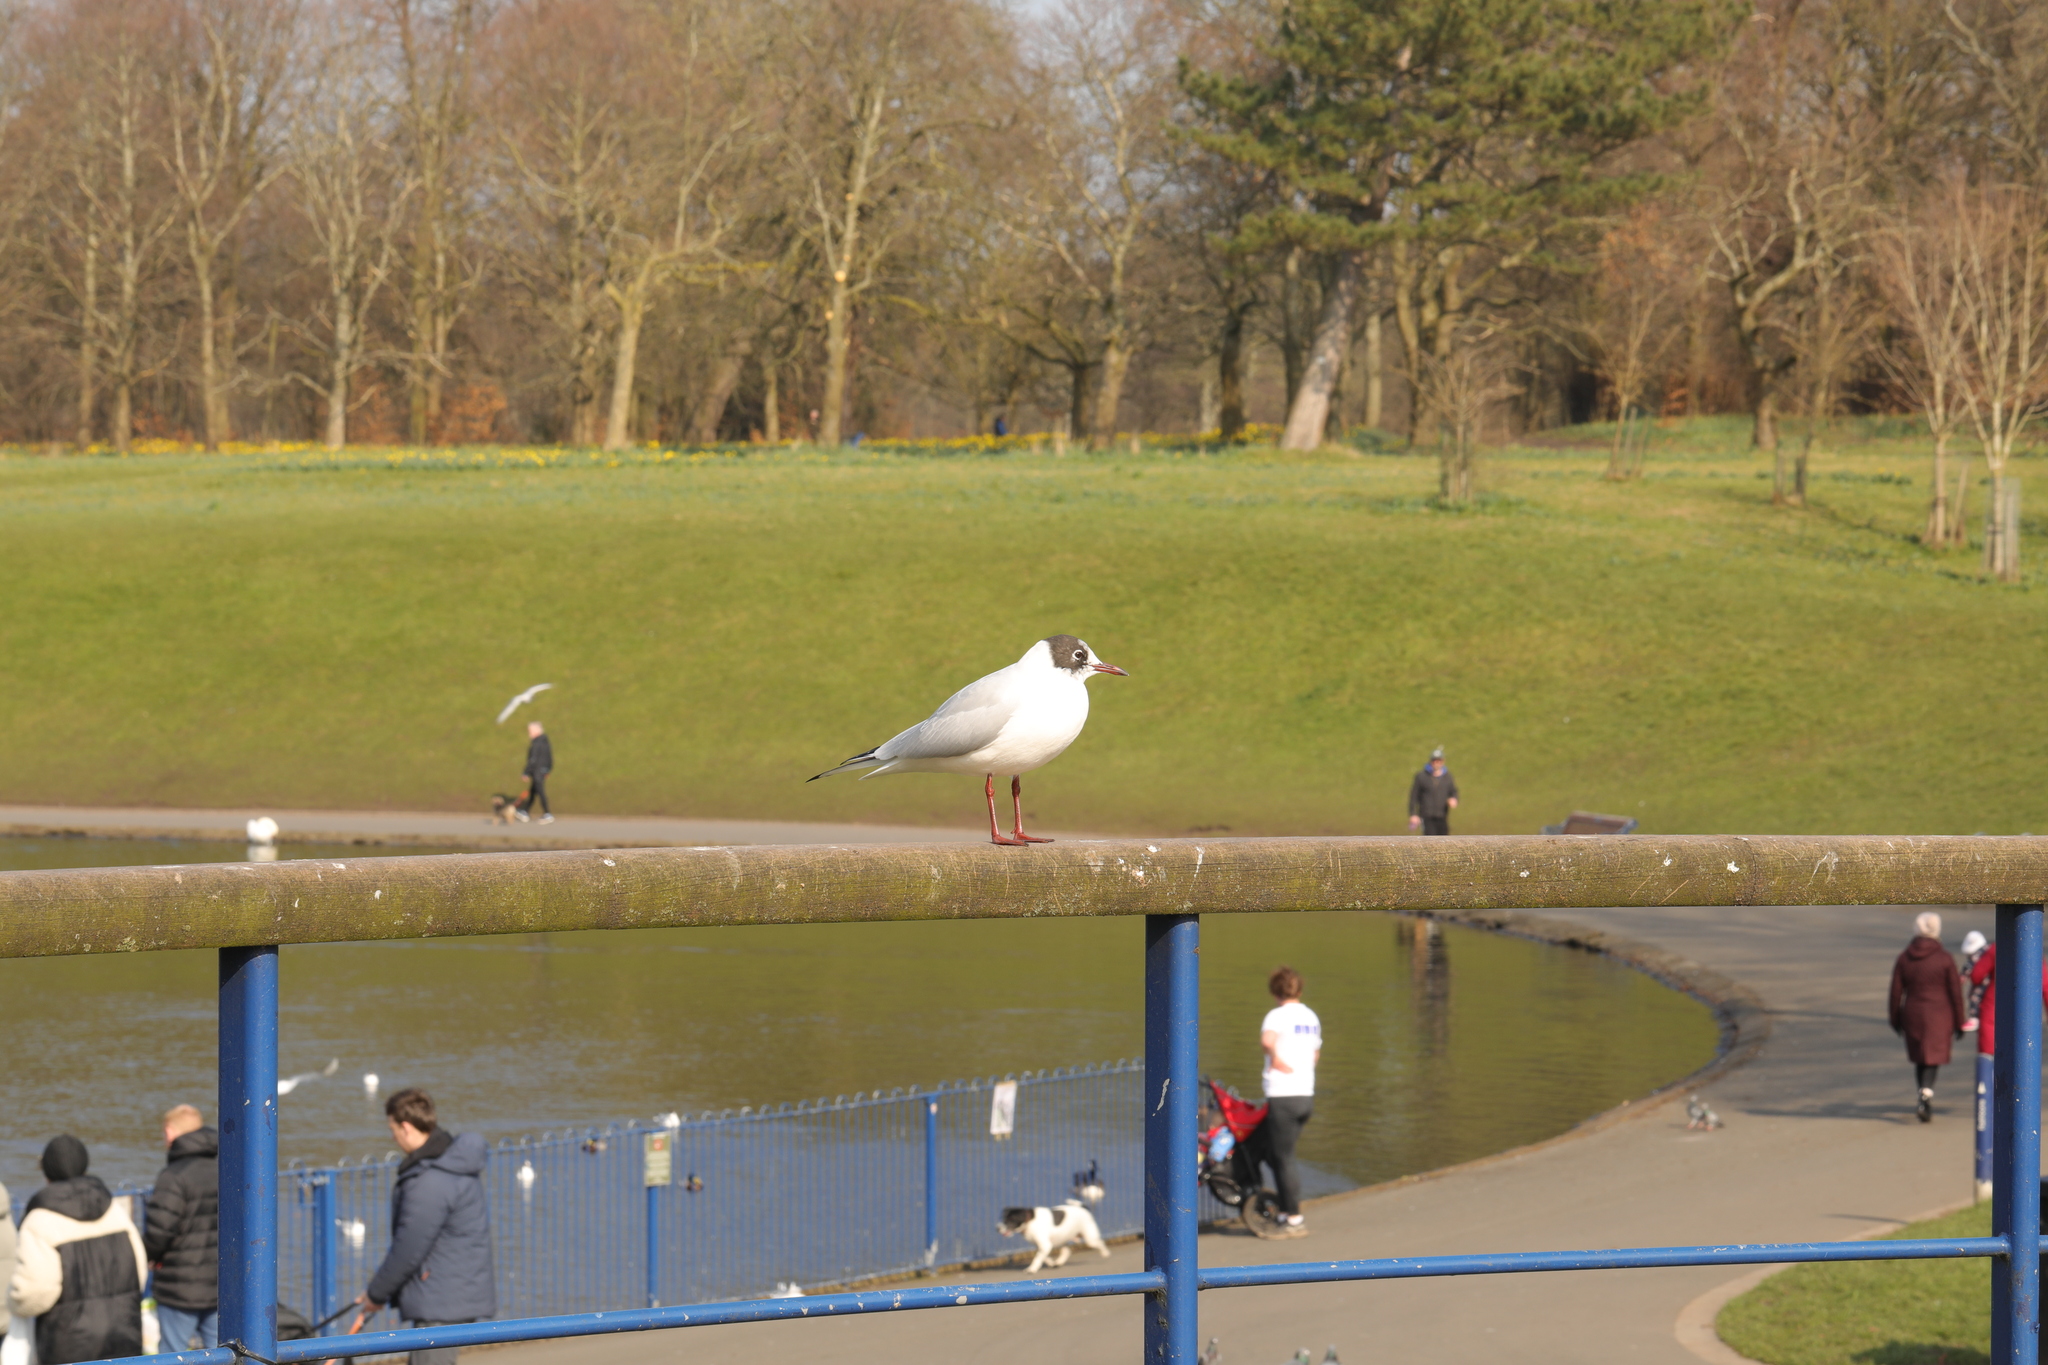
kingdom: Animalia
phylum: Chordata
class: Aves
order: Charadriiformes
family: Laridae
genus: Chroicocephalus
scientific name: Chroicocephalus ridibundus
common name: Black-headed gull
